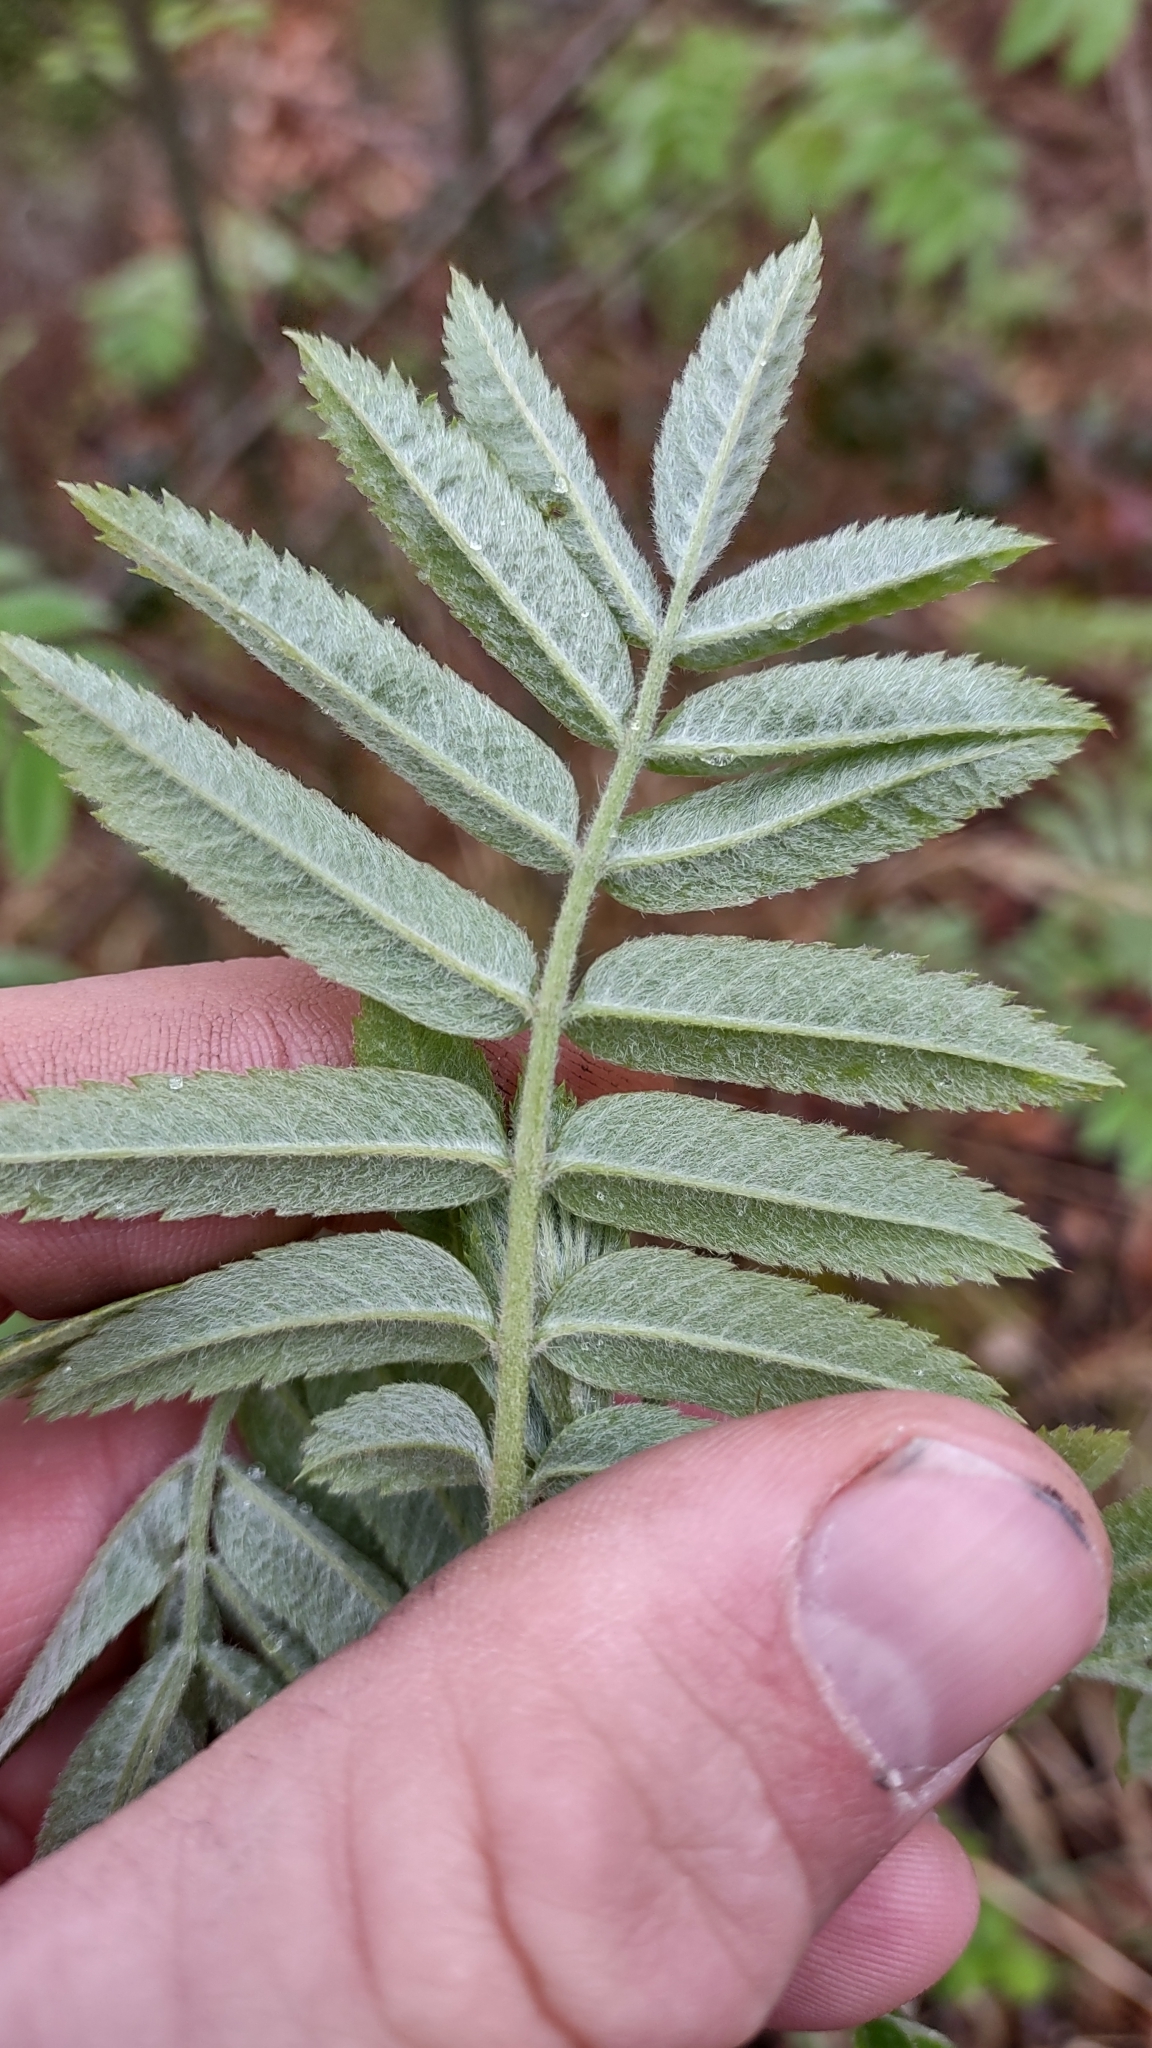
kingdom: Plantae
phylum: Tracheophyta
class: Magnoliopsida
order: Rosales
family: Rosaceae
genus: Sorbus
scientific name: Sorbus aucuparia
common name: Rowan
